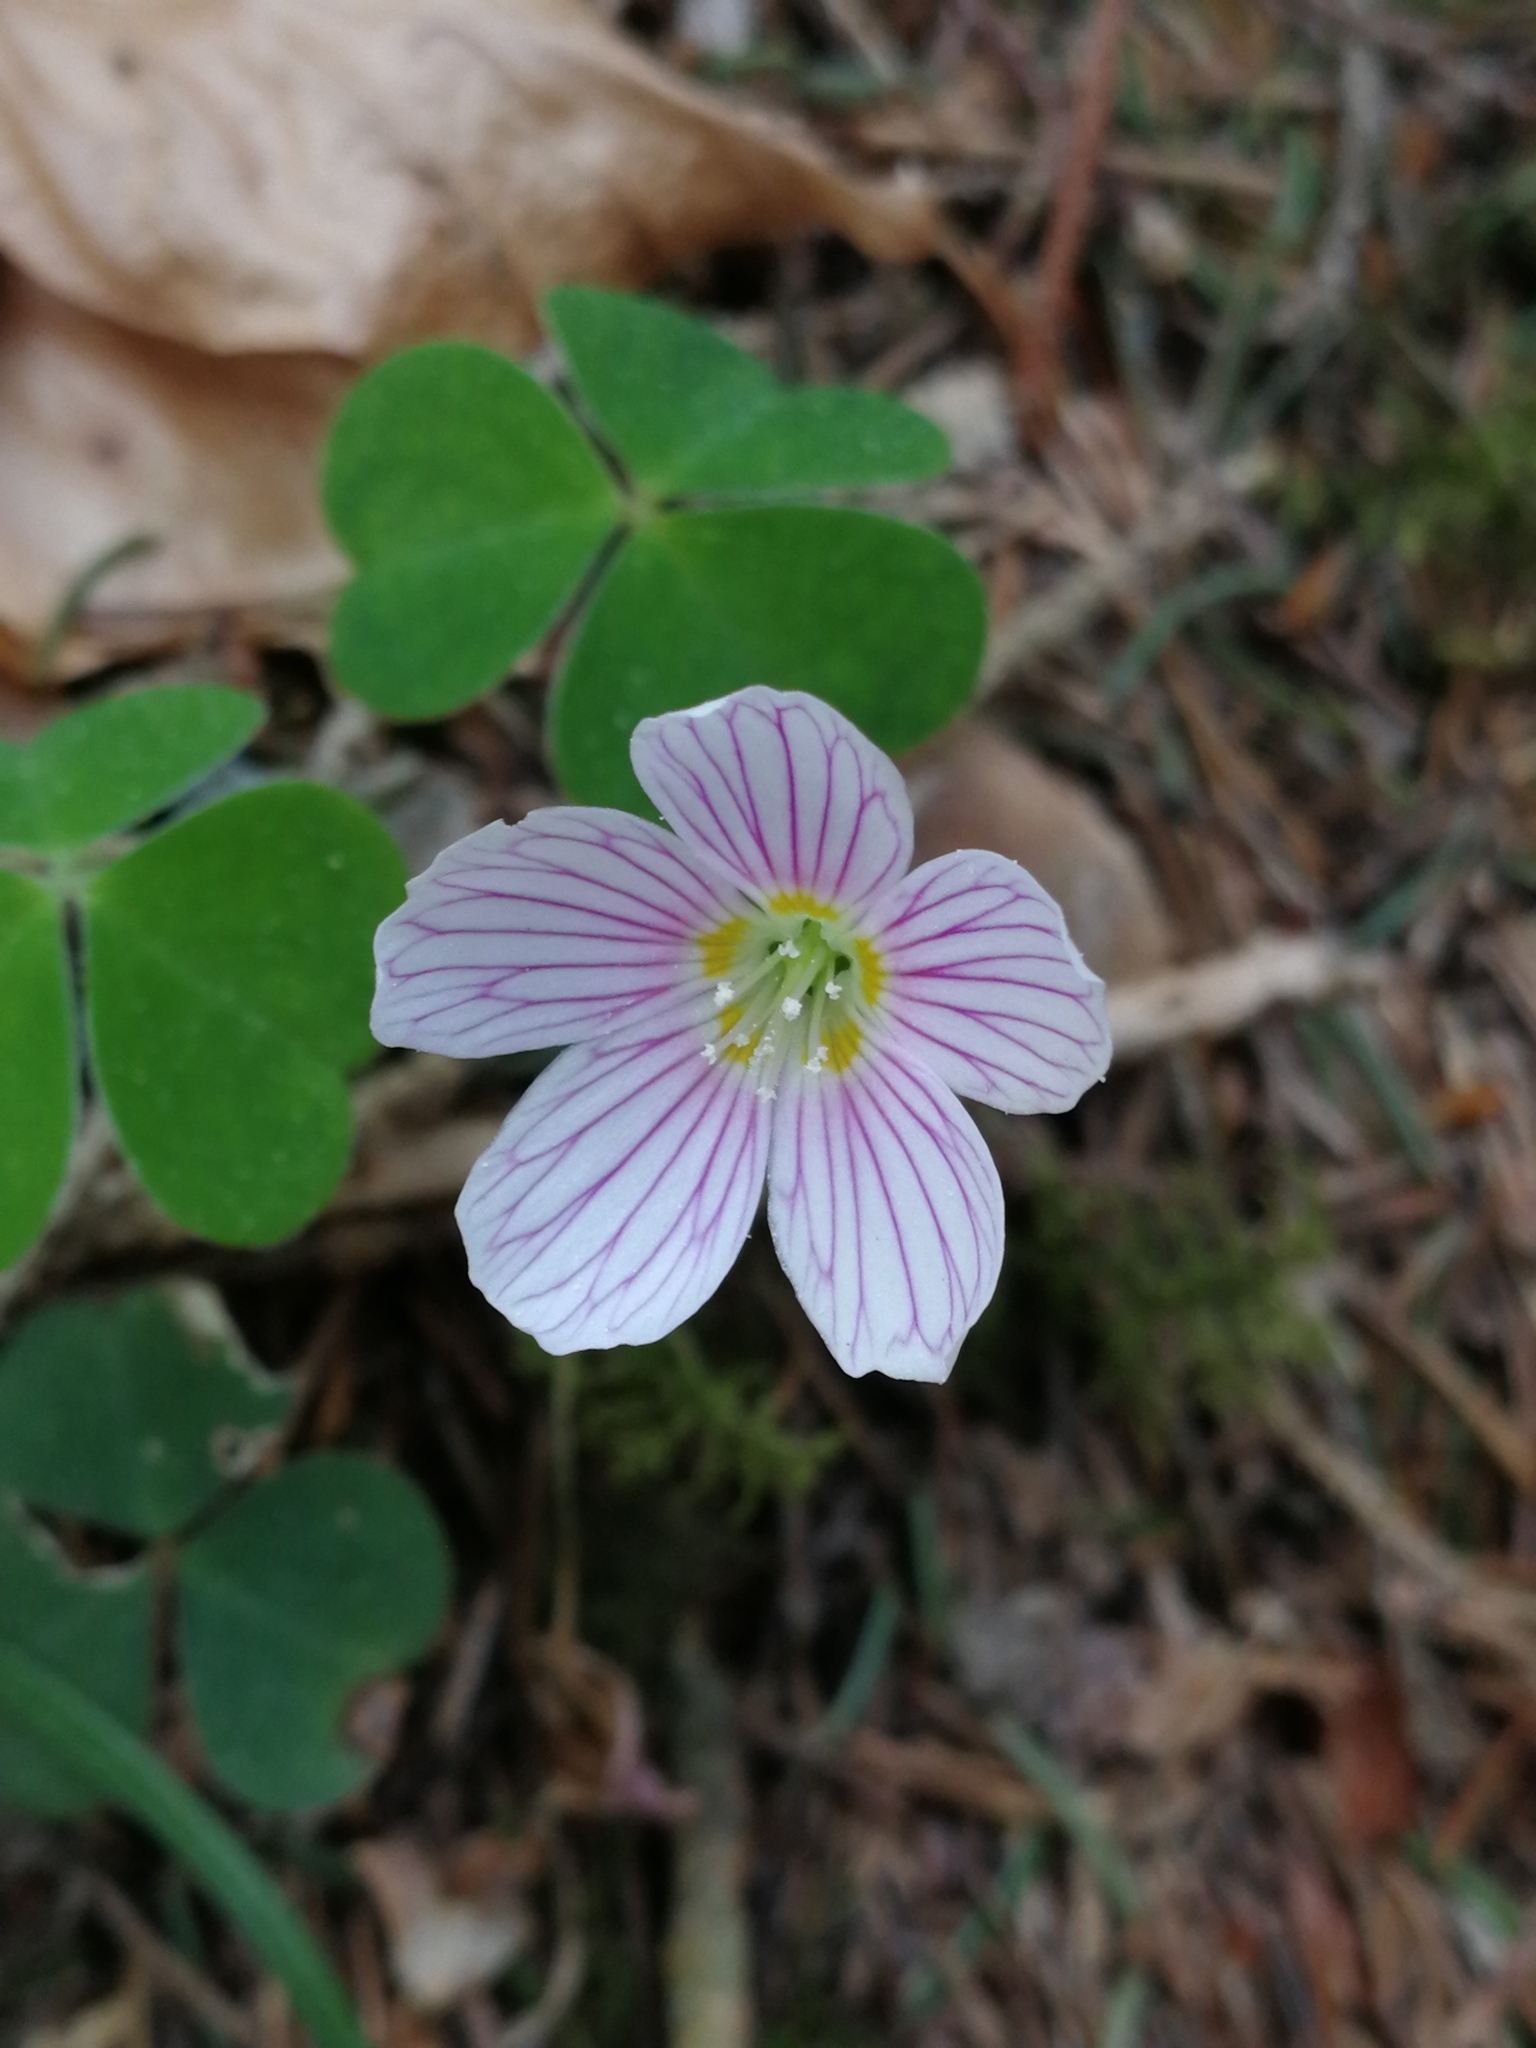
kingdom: Plantae
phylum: Tracheophyta
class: Magnoliopsida
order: Oxalidales
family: Oxalidaceae
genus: Oxalis
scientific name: Oxalis acetosella
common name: Wood-sorrel
